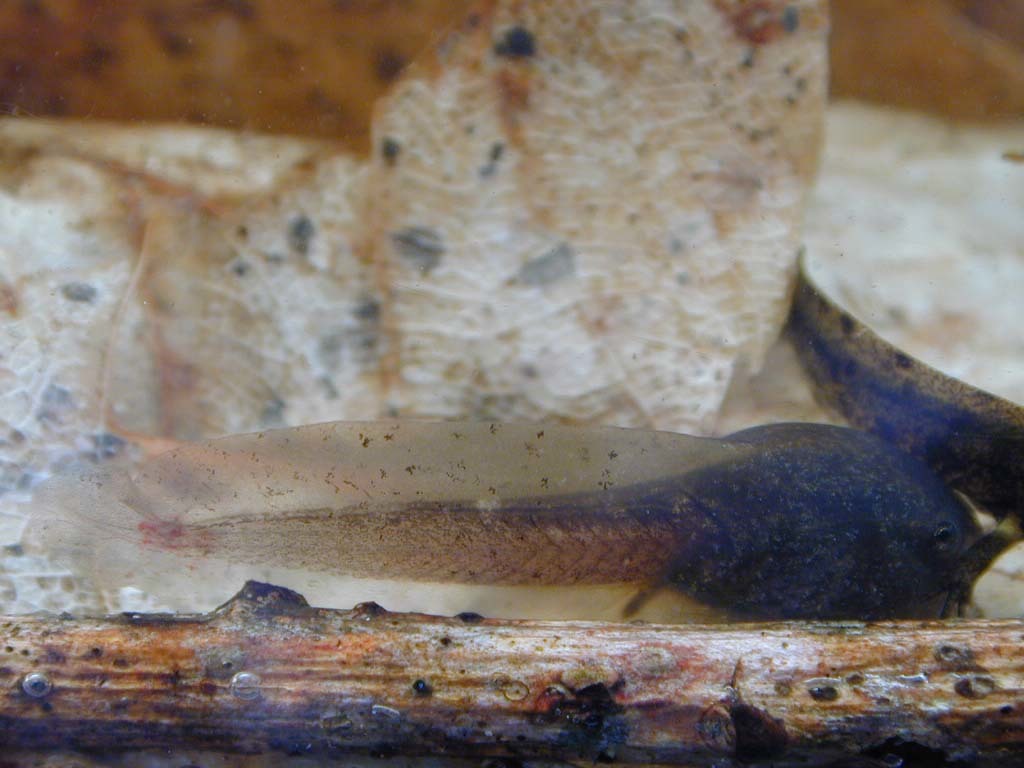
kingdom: Animalia
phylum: Chordata
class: Amphibia
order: Anura
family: Alytidae
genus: Alytes
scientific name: Alytes obstetricans
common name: Midwife toad
